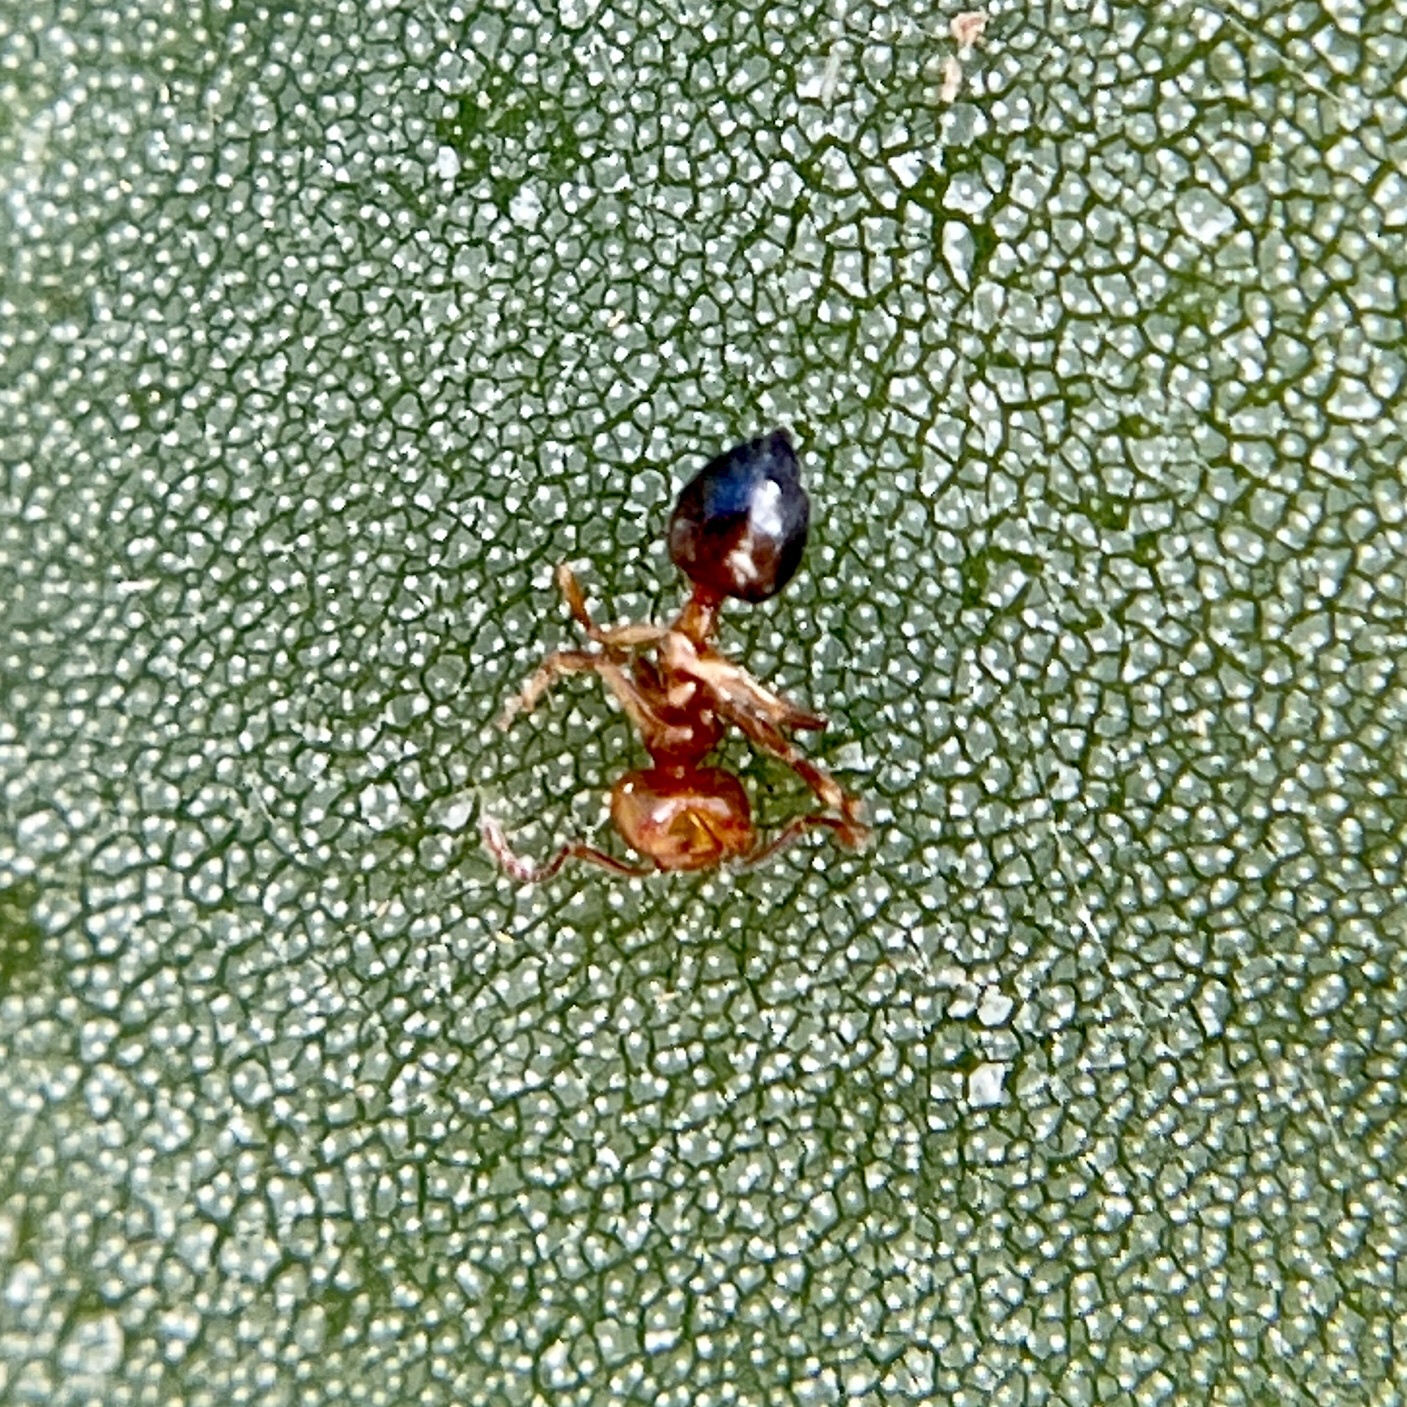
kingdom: Animalia
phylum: Arthropoda
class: Insecta
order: Hymenoptera
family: Formicidae
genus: Crematogaster
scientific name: Crematogaster laeviuscula
